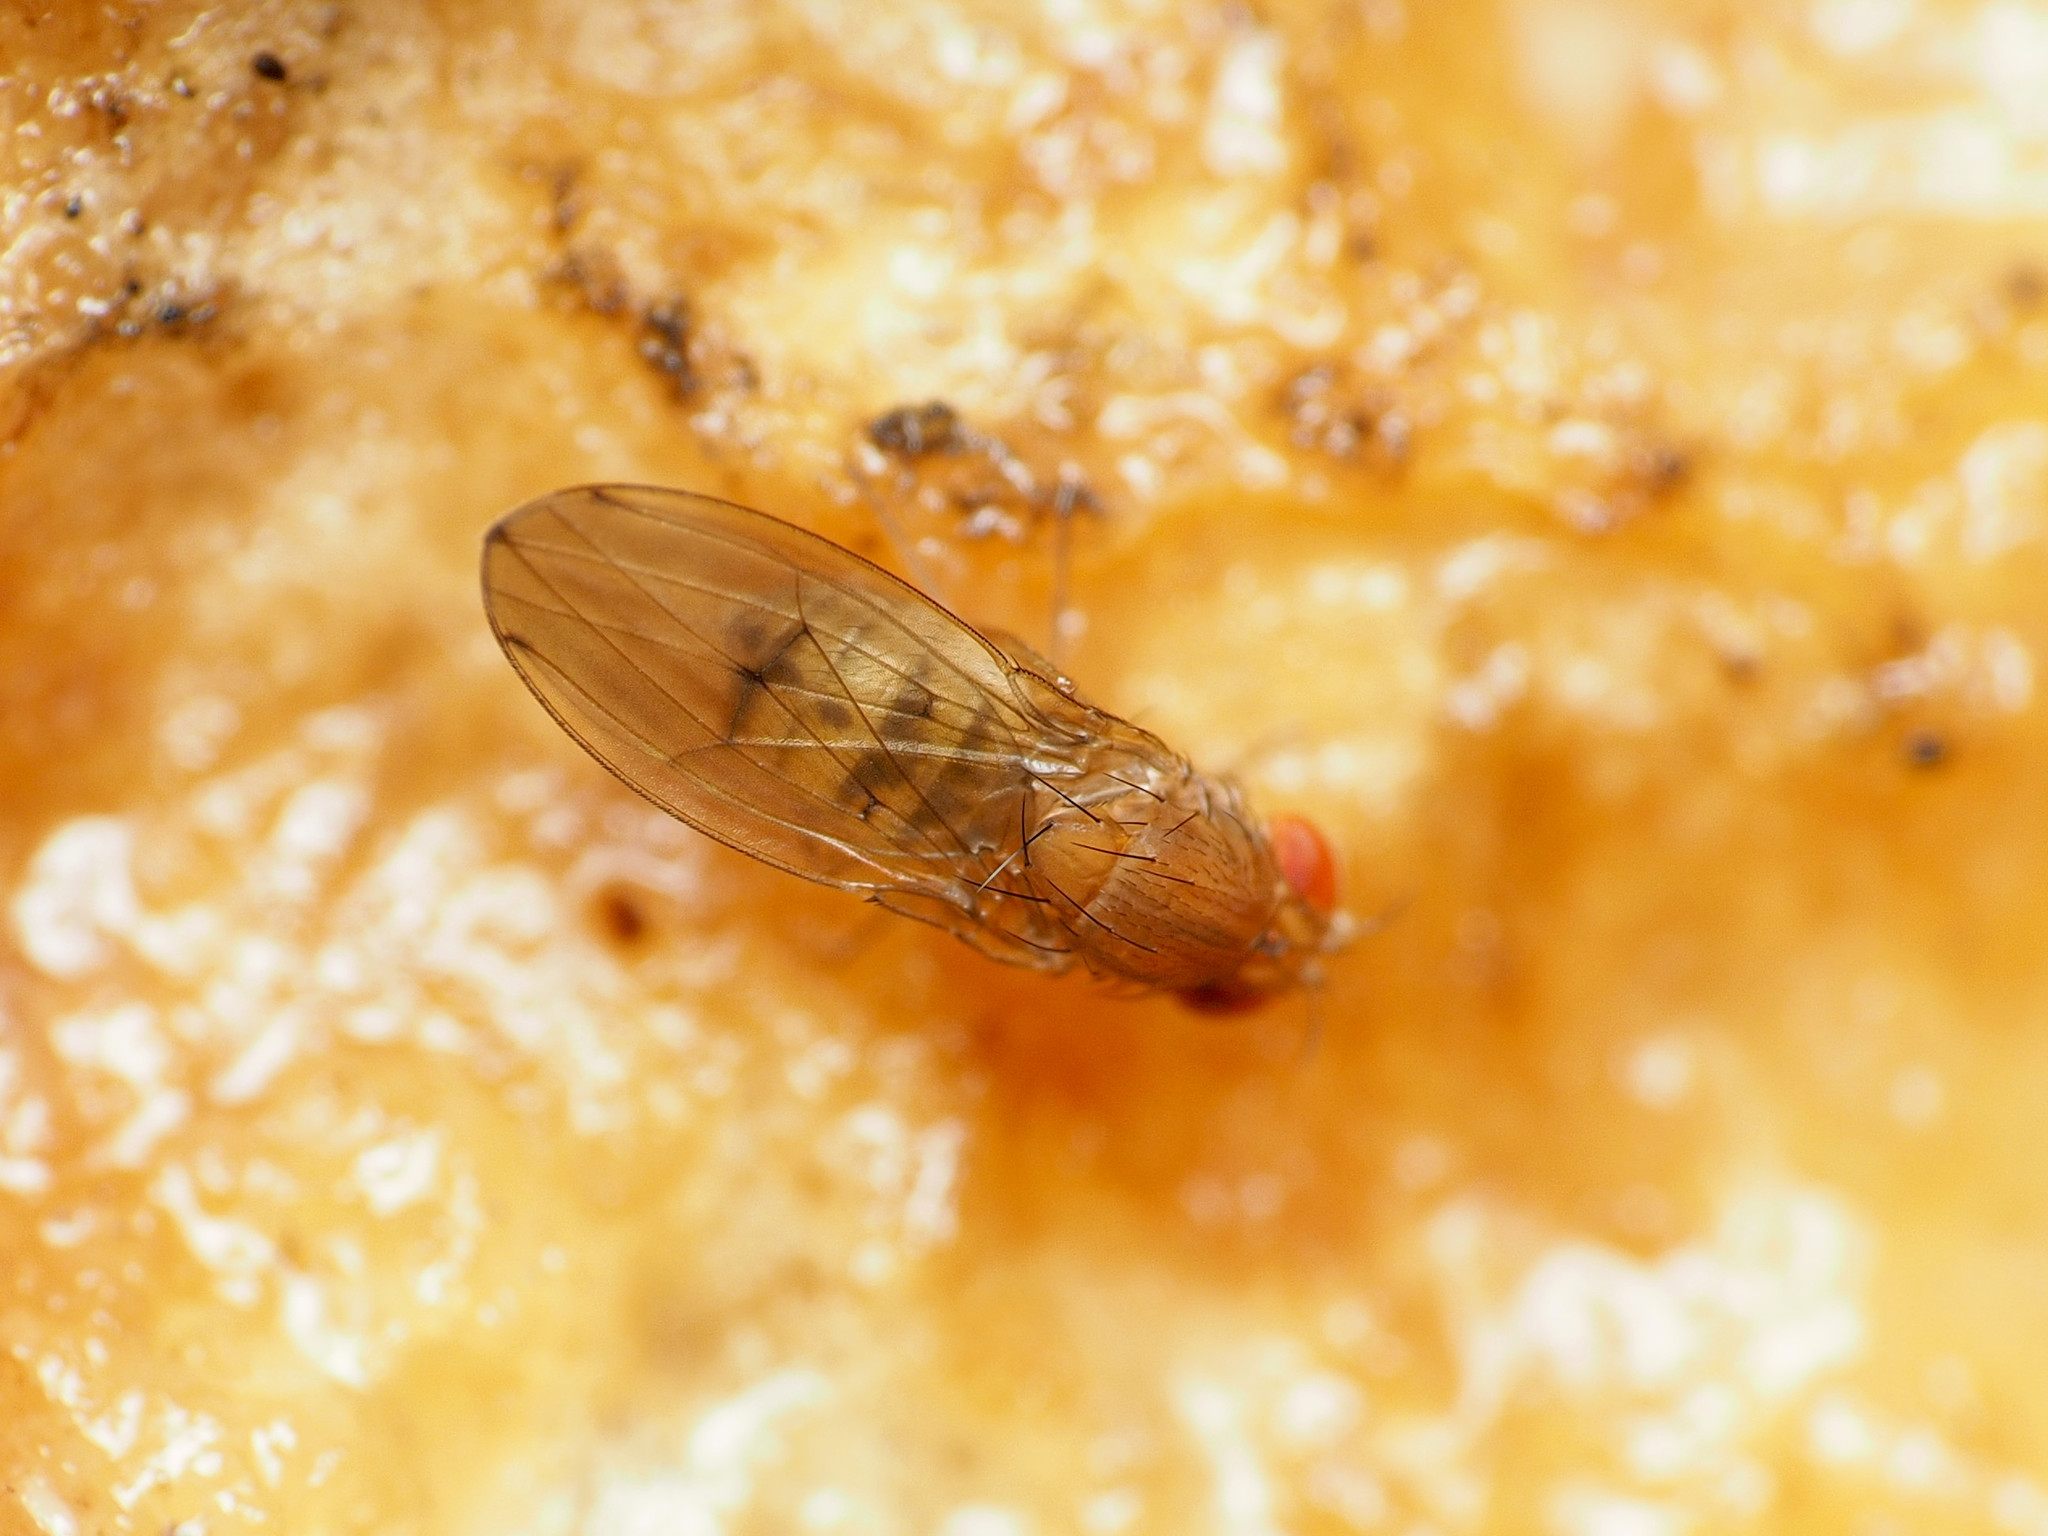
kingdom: Animalia
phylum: Arthropoda
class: Insecta
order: Diptera
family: Drosophilidae
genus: Drosophila
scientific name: Drosophila tripunctata
